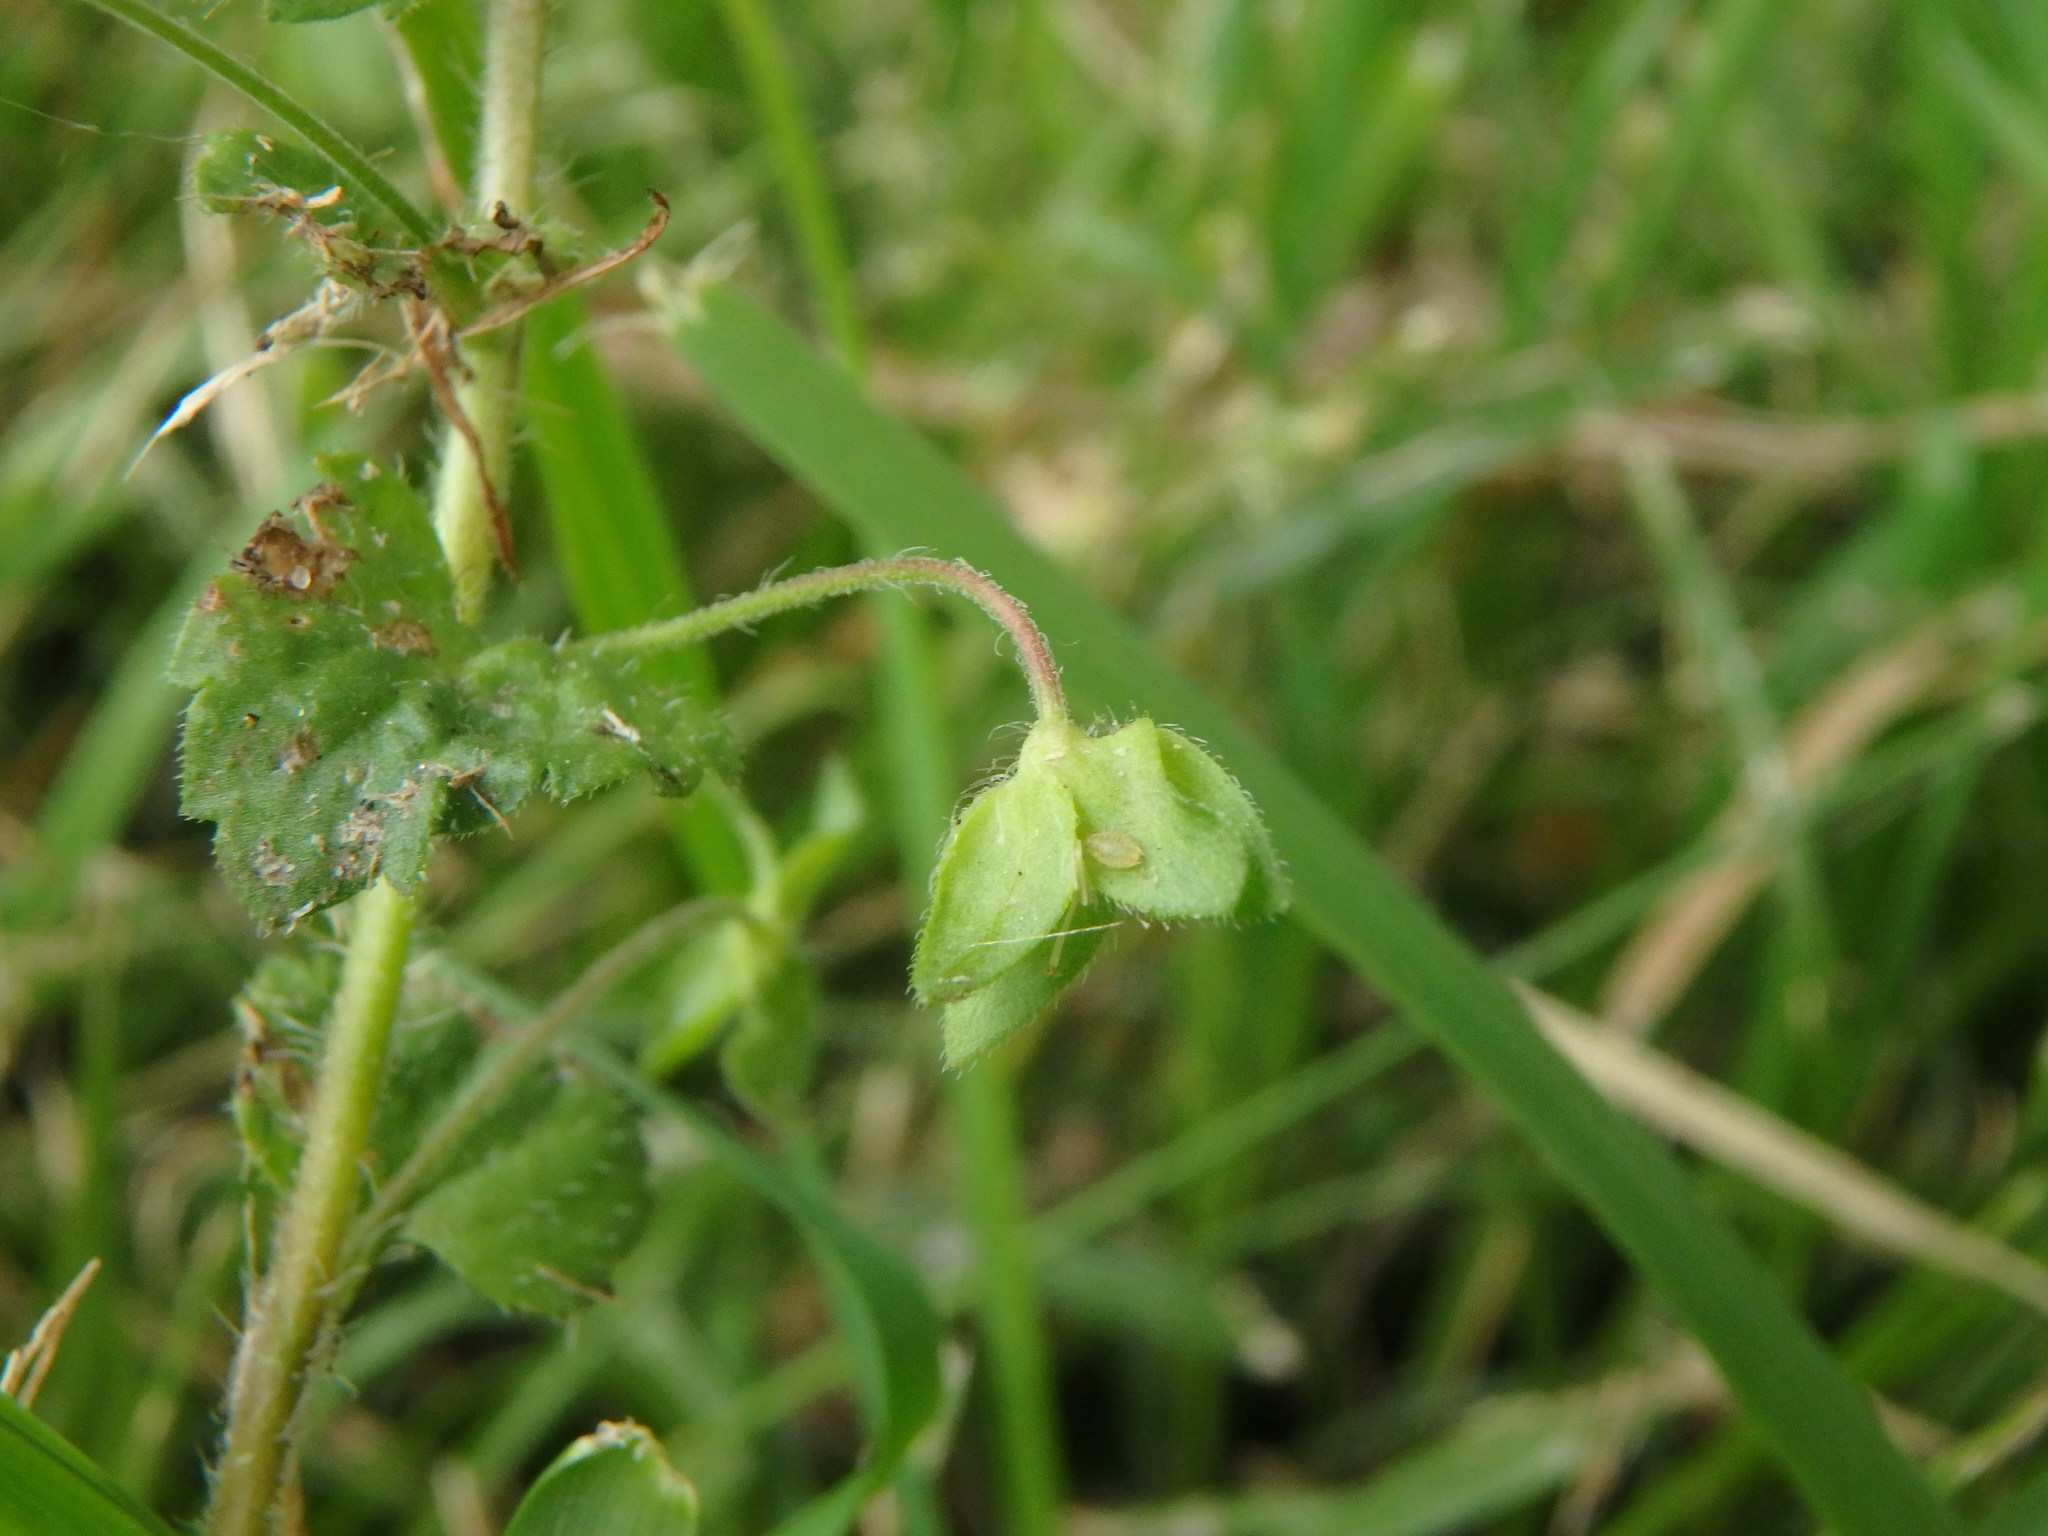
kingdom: Plantae
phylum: Tracheophyta
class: Magnoliopsida
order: Lamiales
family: Plantaginaceae
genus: Veronica
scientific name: Veronica persica
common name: Common field-speedwell
